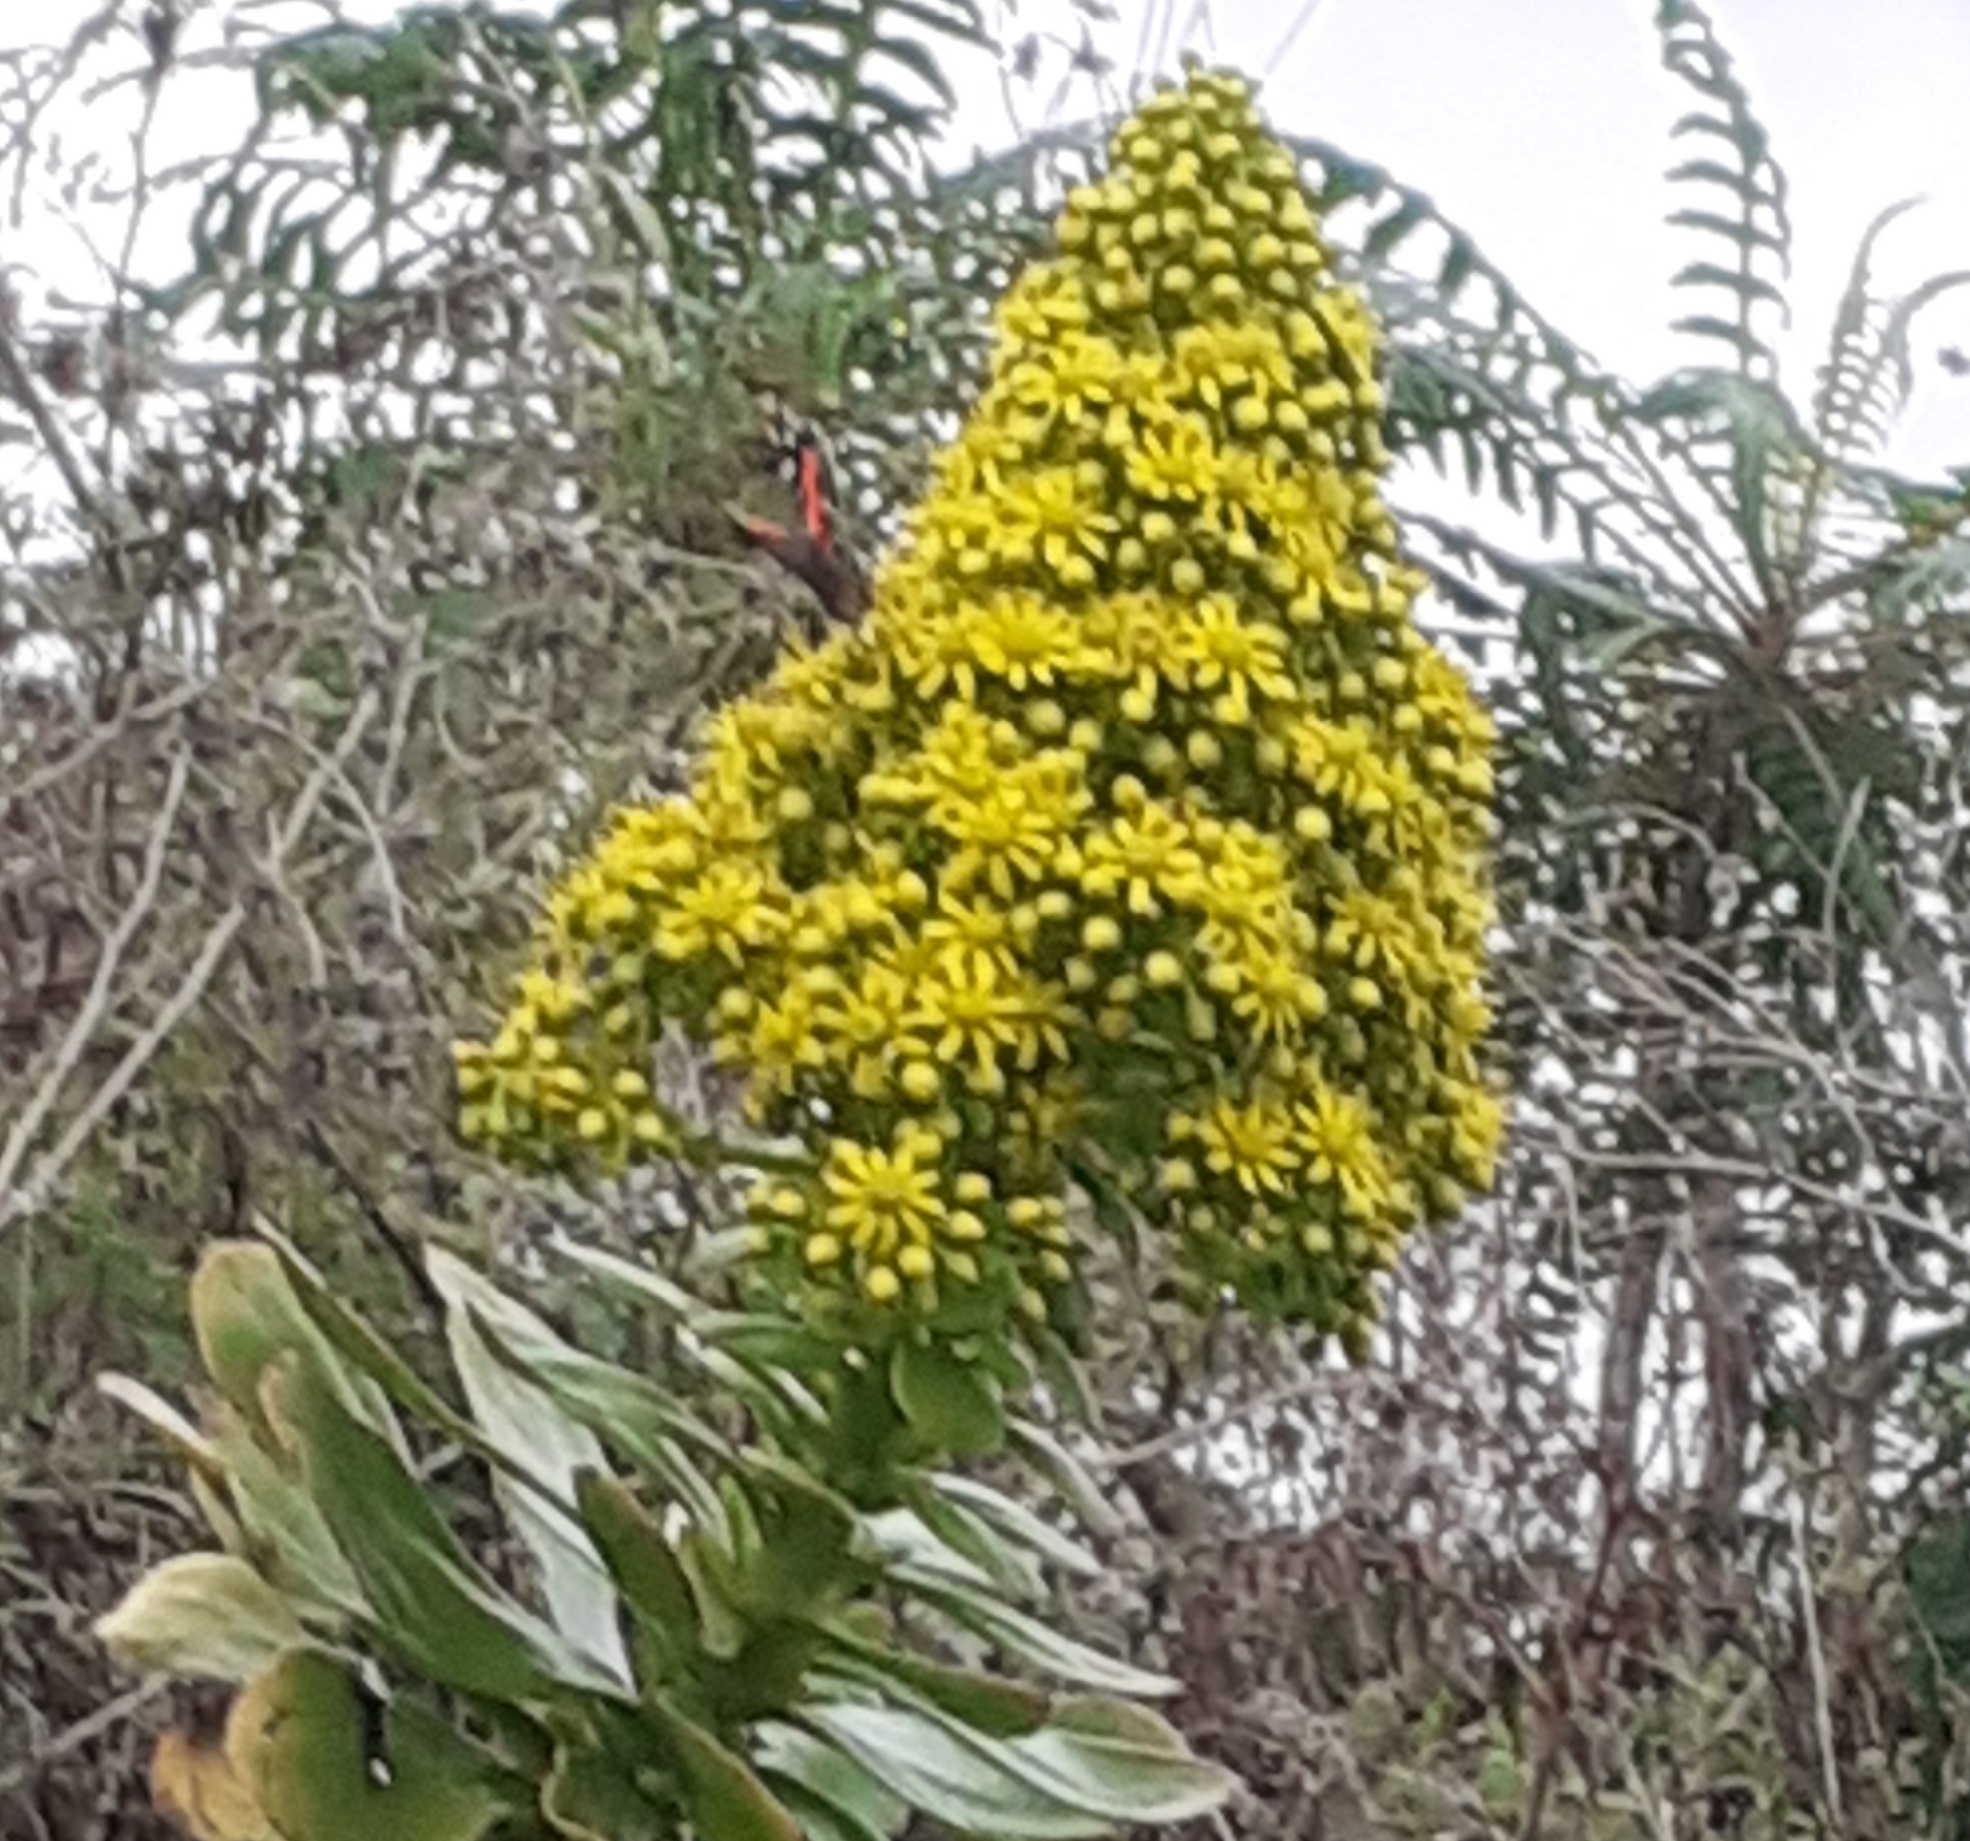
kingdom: Animalia
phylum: Arthropoda
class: Insecta
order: Lepidoptera
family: Nymphalidae
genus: Vanessa
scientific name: Vanessa vulcania
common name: Canary red admiral
